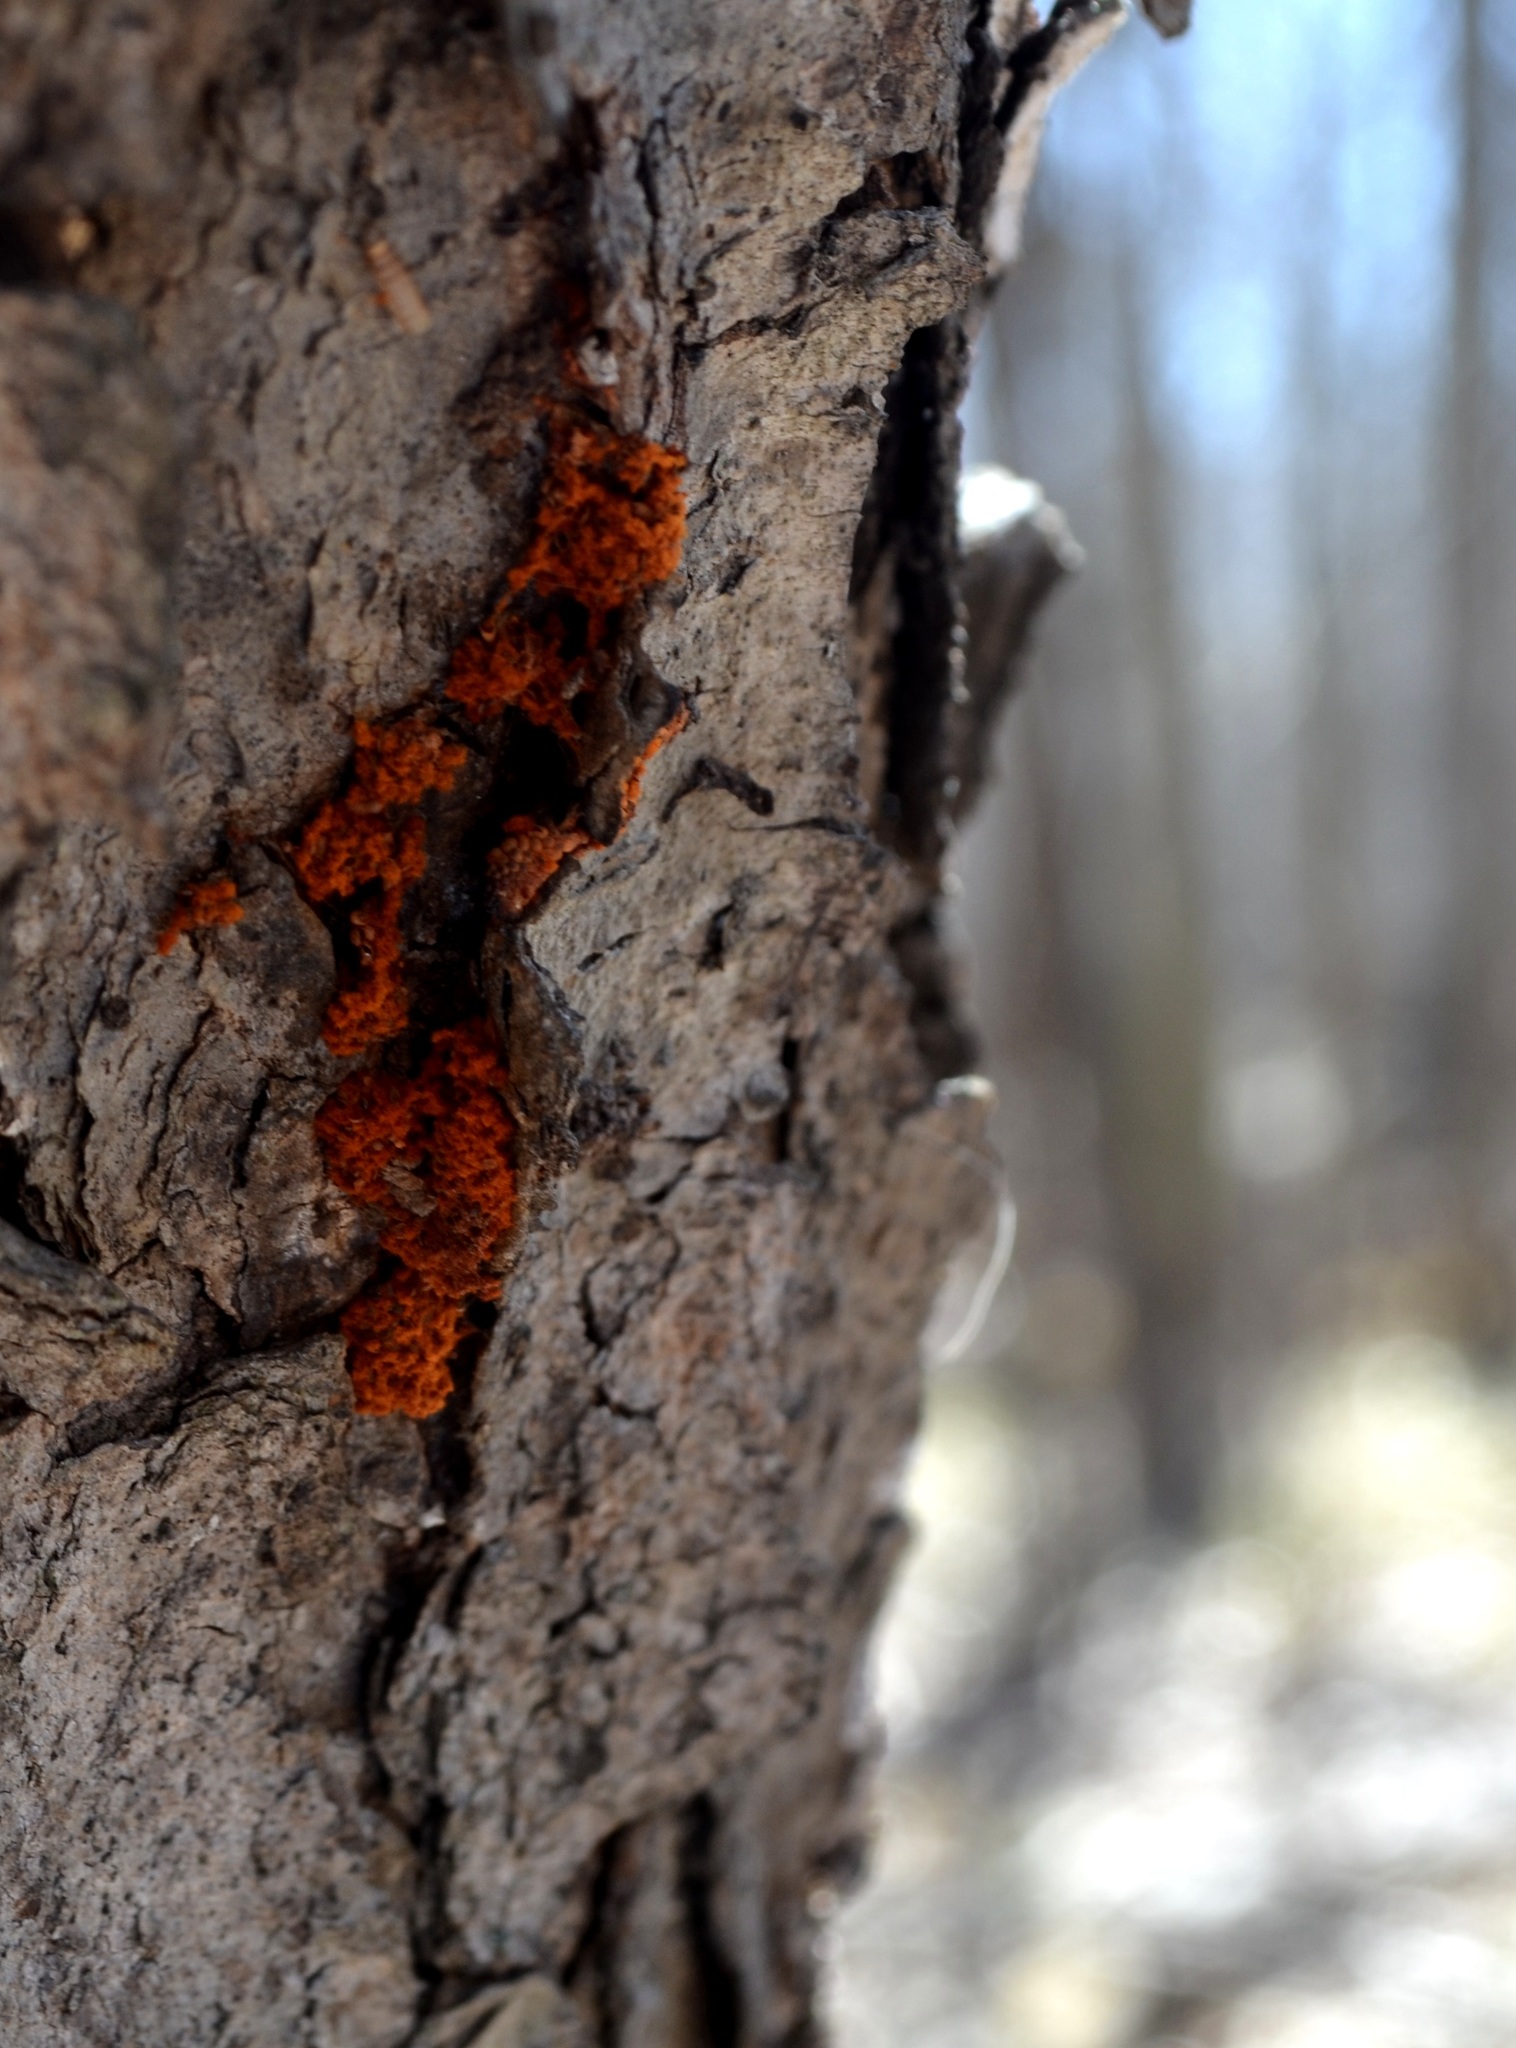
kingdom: Protozoa
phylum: Mycetozoa
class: Myxomycetes
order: Trichiales
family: Trichiaceae
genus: Metatrichia
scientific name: Metatrichia vesparia
